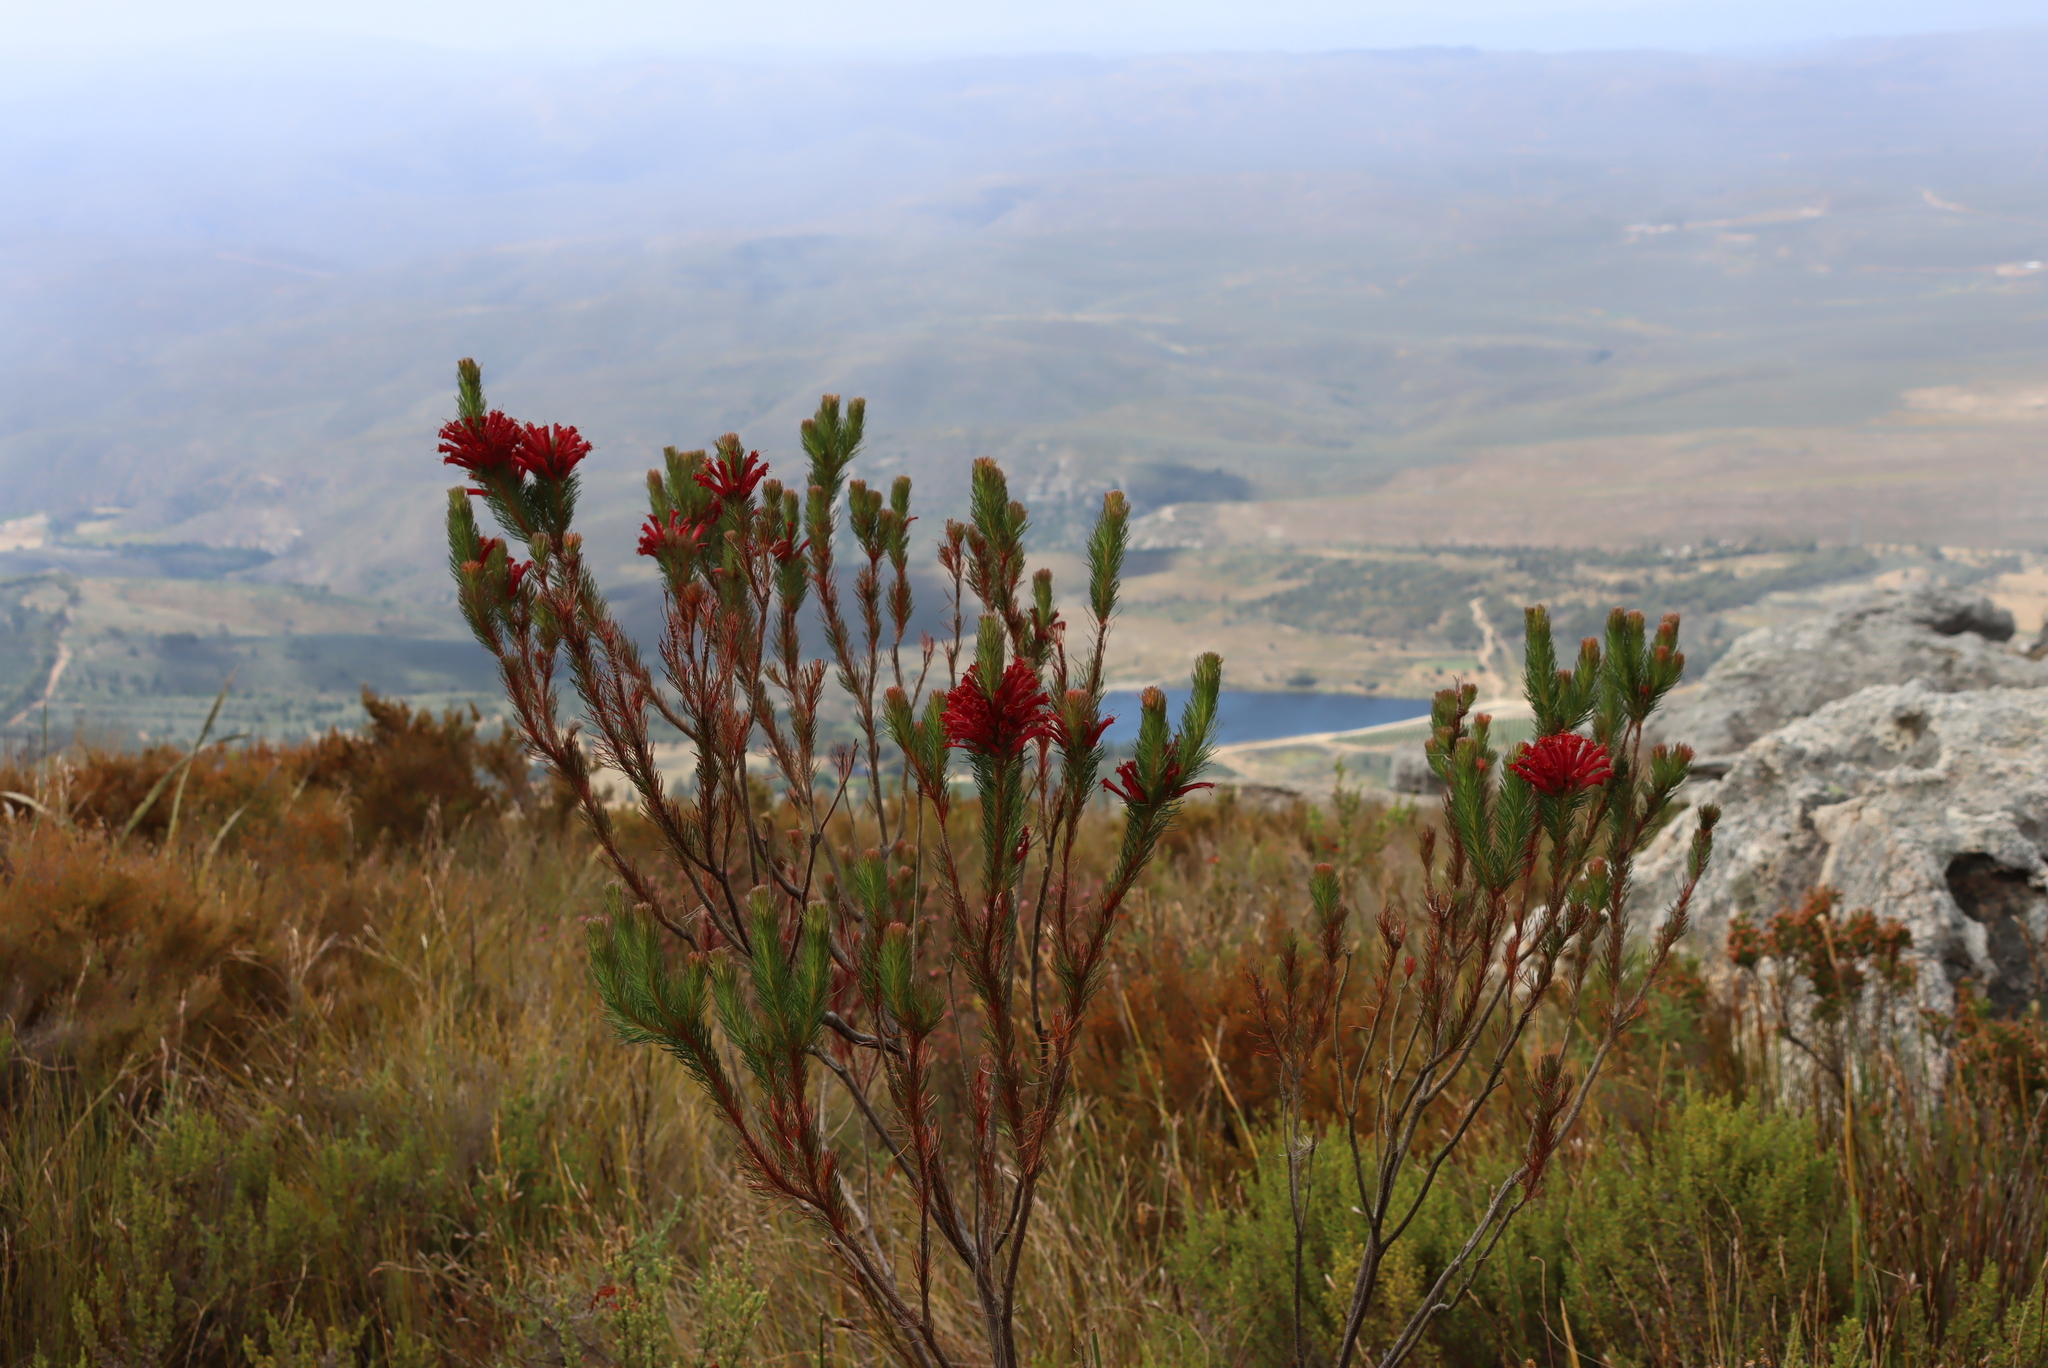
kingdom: Plantae
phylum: Tracheophyta
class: Magnoliopsida
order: Ericales
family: Ericaceae
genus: Erica
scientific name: Erica vestita
